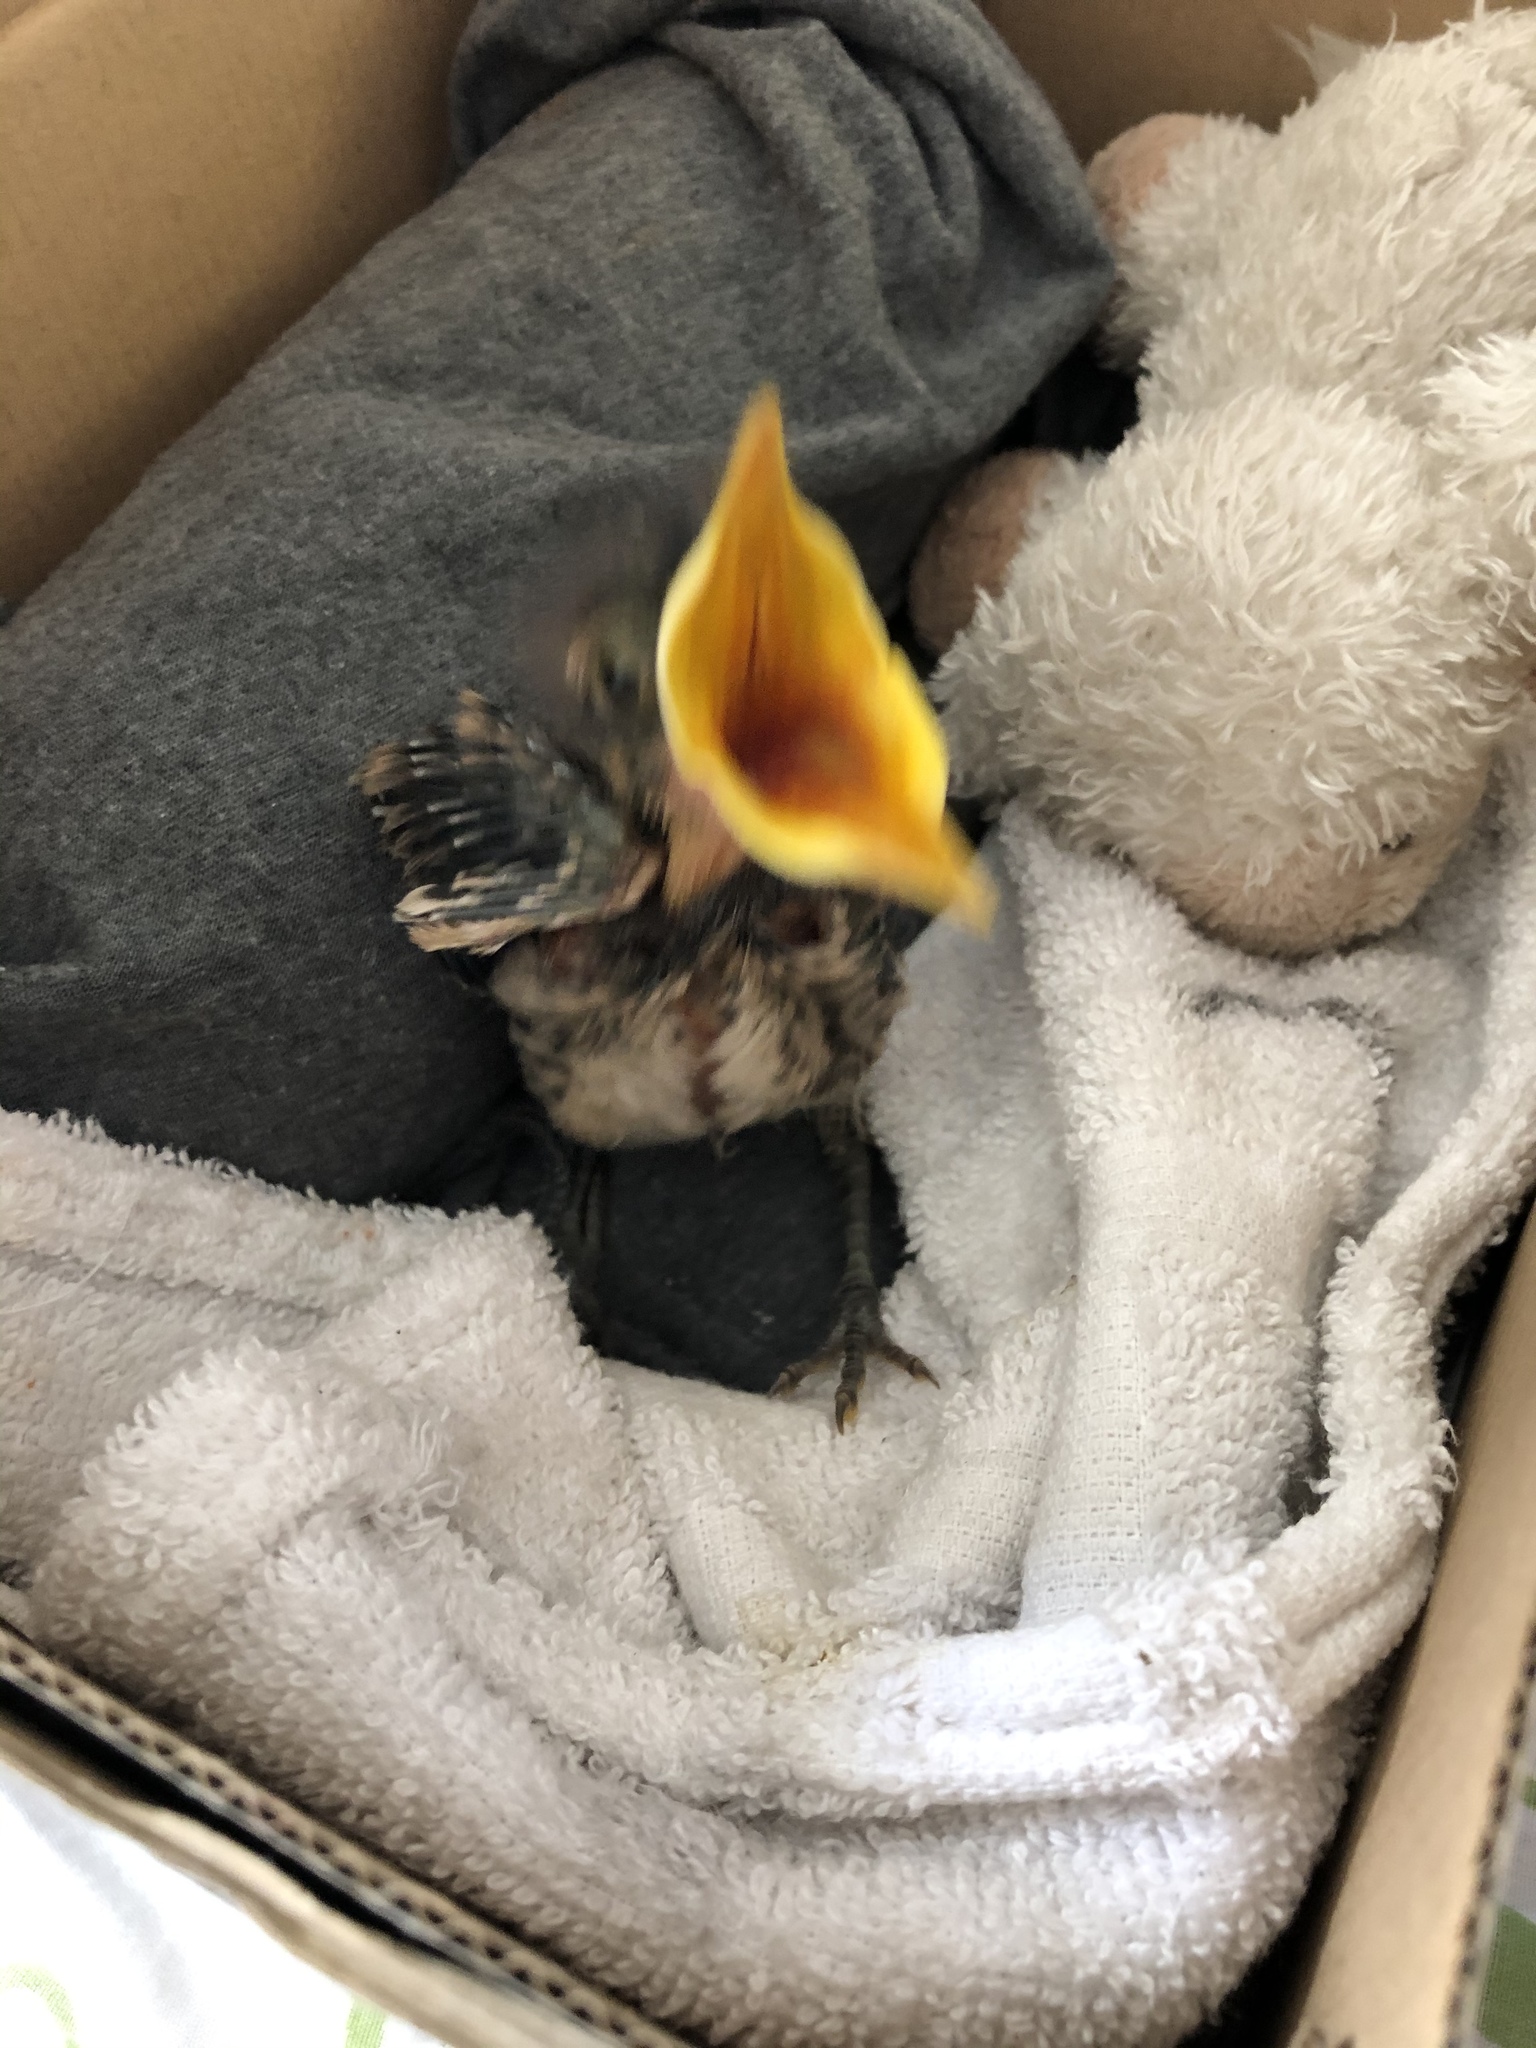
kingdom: Animalia
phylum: Chordata
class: Aves
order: Passeriformes
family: Mimidae
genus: Mimus
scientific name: Mimus longicaudatus
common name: Long-tailed mockingbird
